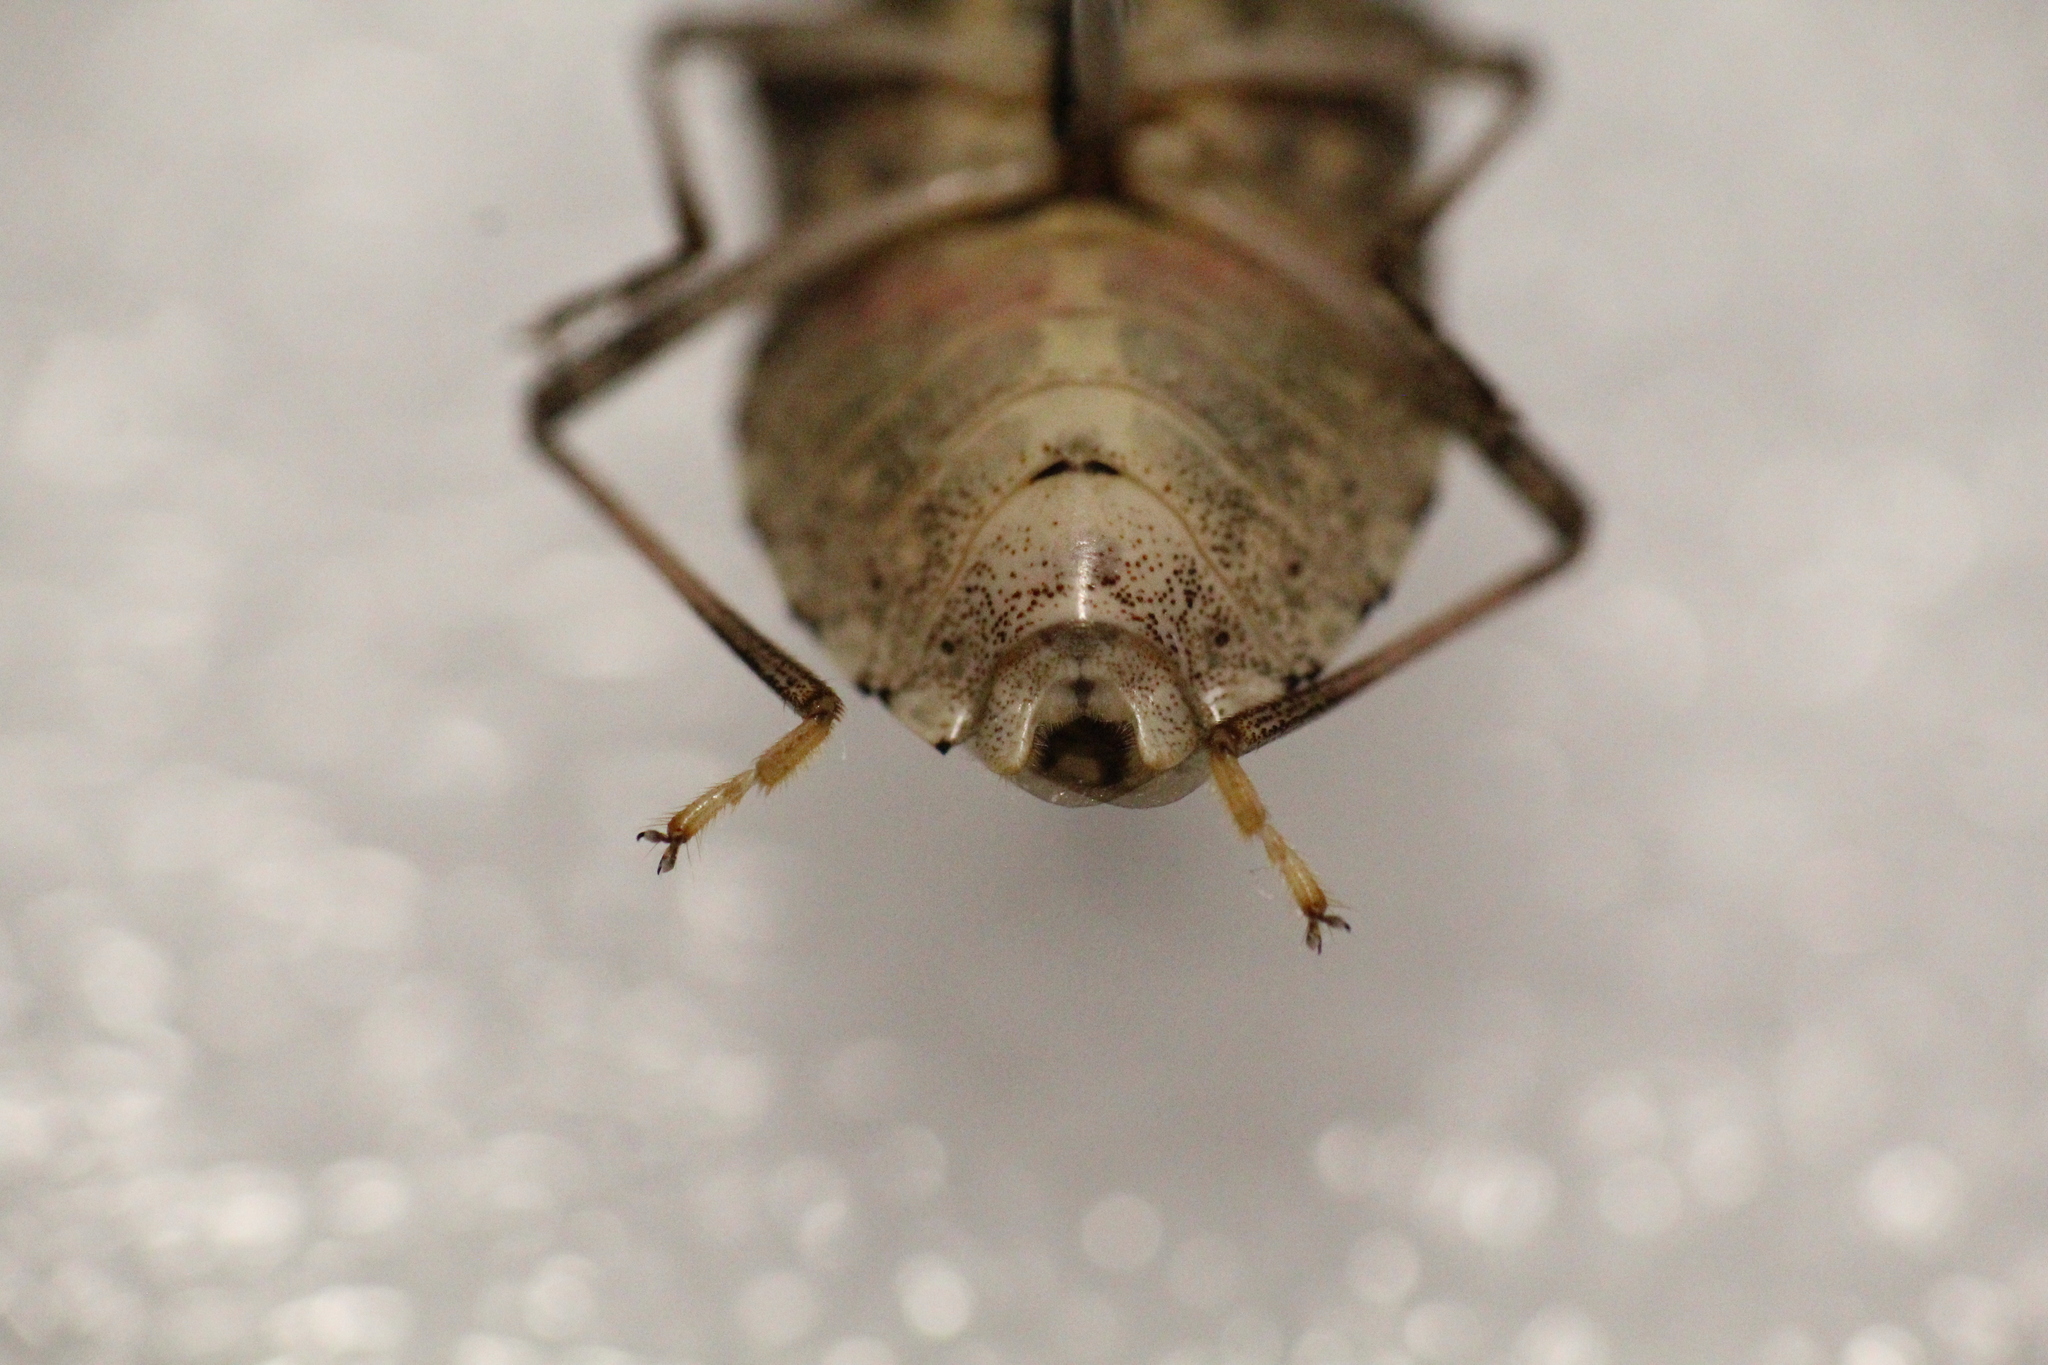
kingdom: Animalia
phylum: Arthropoda
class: Insecta
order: Hemiptera
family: Pentatomidae
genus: Halyomorpha
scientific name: Halyomorpha halys
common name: Brown marmorated stink bug
